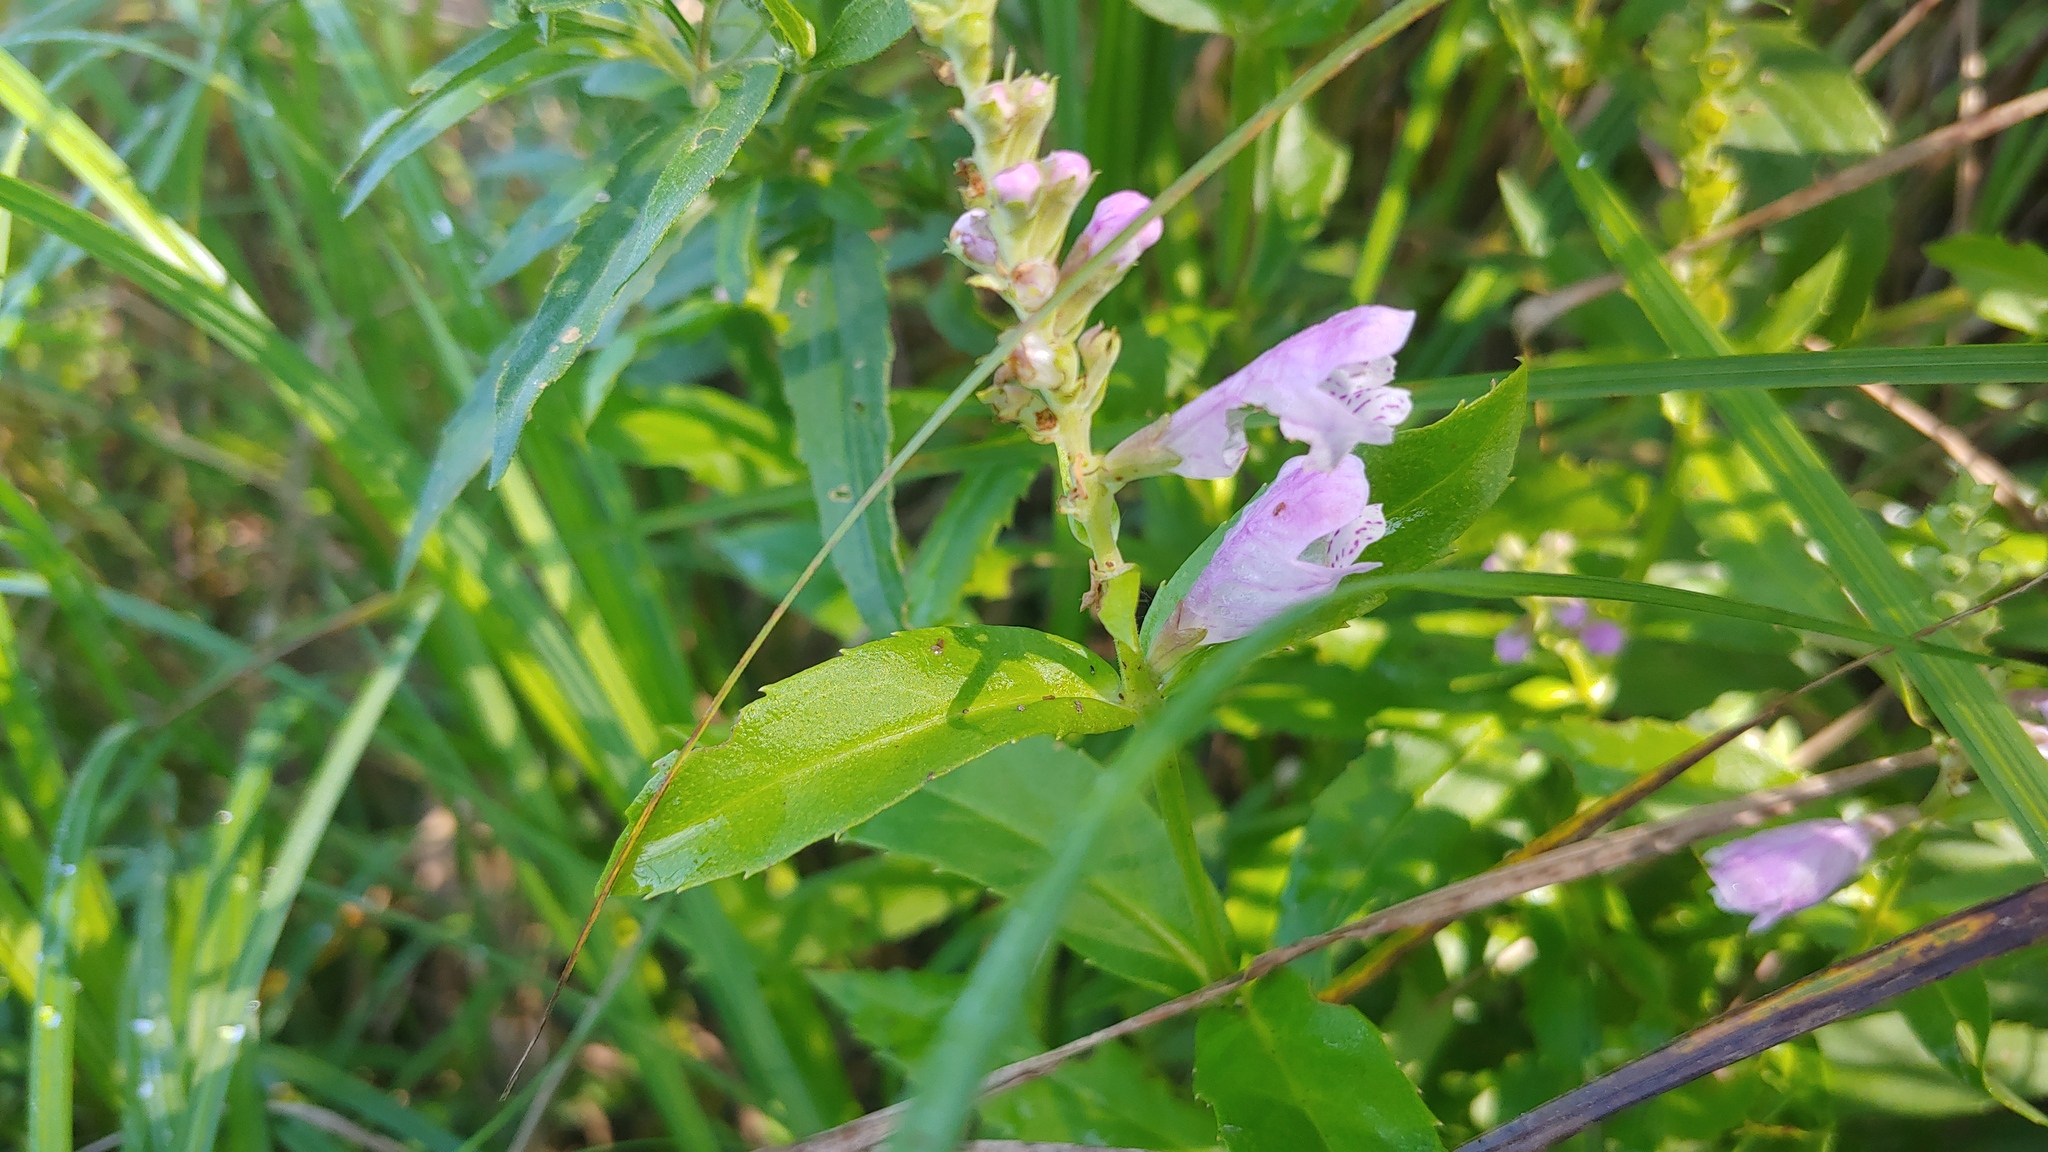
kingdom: Plantae
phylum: Tracheophyta
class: Magnoliopsida
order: Lamiales
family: Lamiaceae
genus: Physostegia
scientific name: Physostegia virginiana
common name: Obedient-plant
